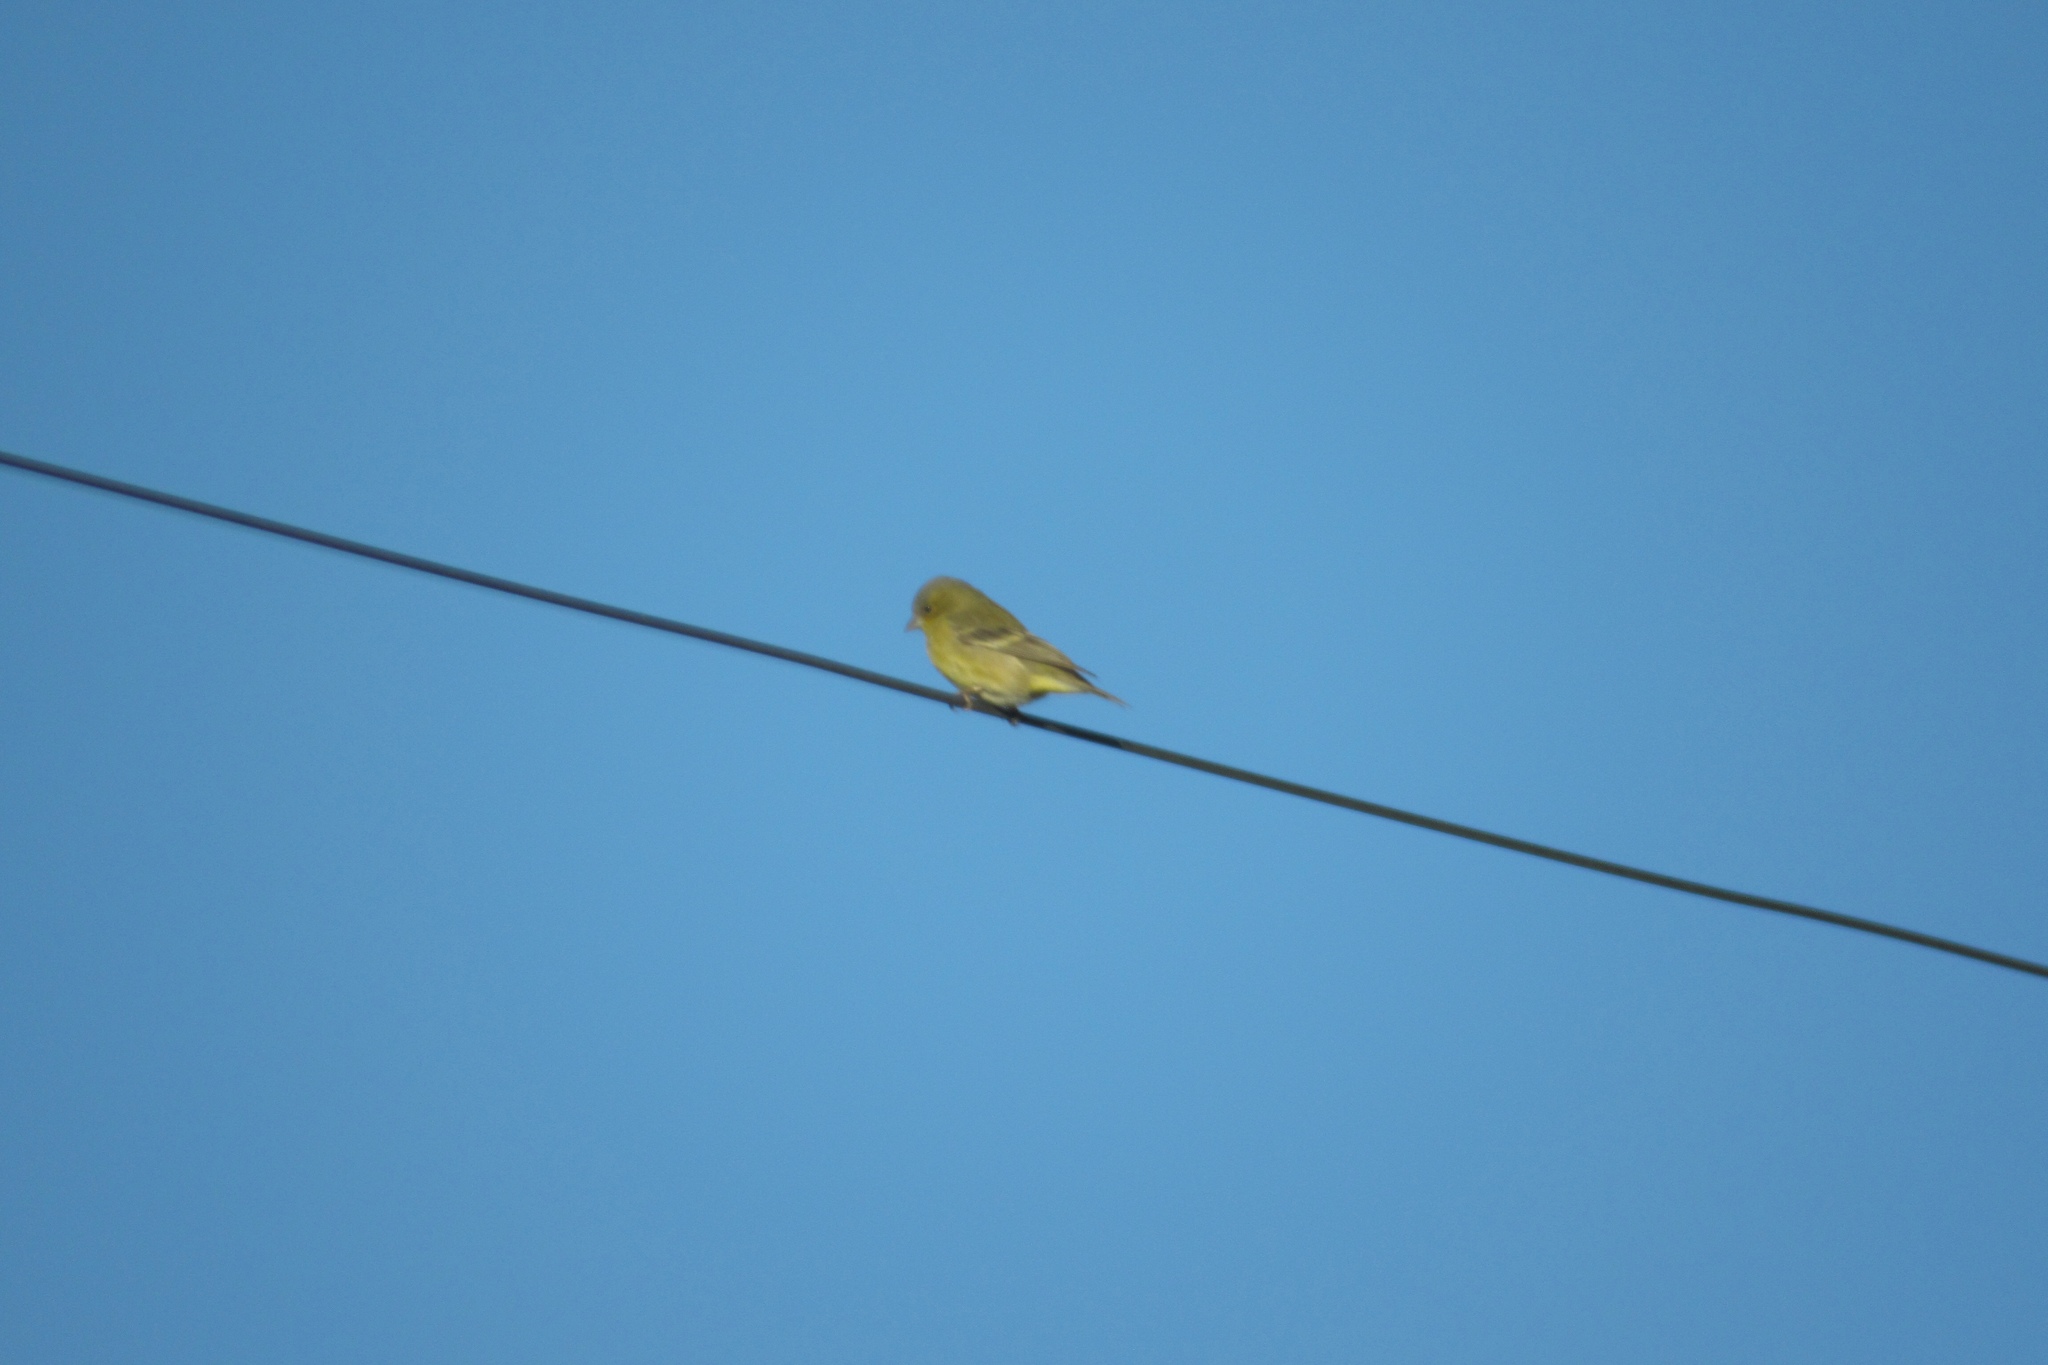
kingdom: Animalia
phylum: Chordata
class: Aves
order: Passeriformes
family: Fringillidae
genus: Spinus
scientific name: Spinus psaltria
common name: Lesser goldfinch
